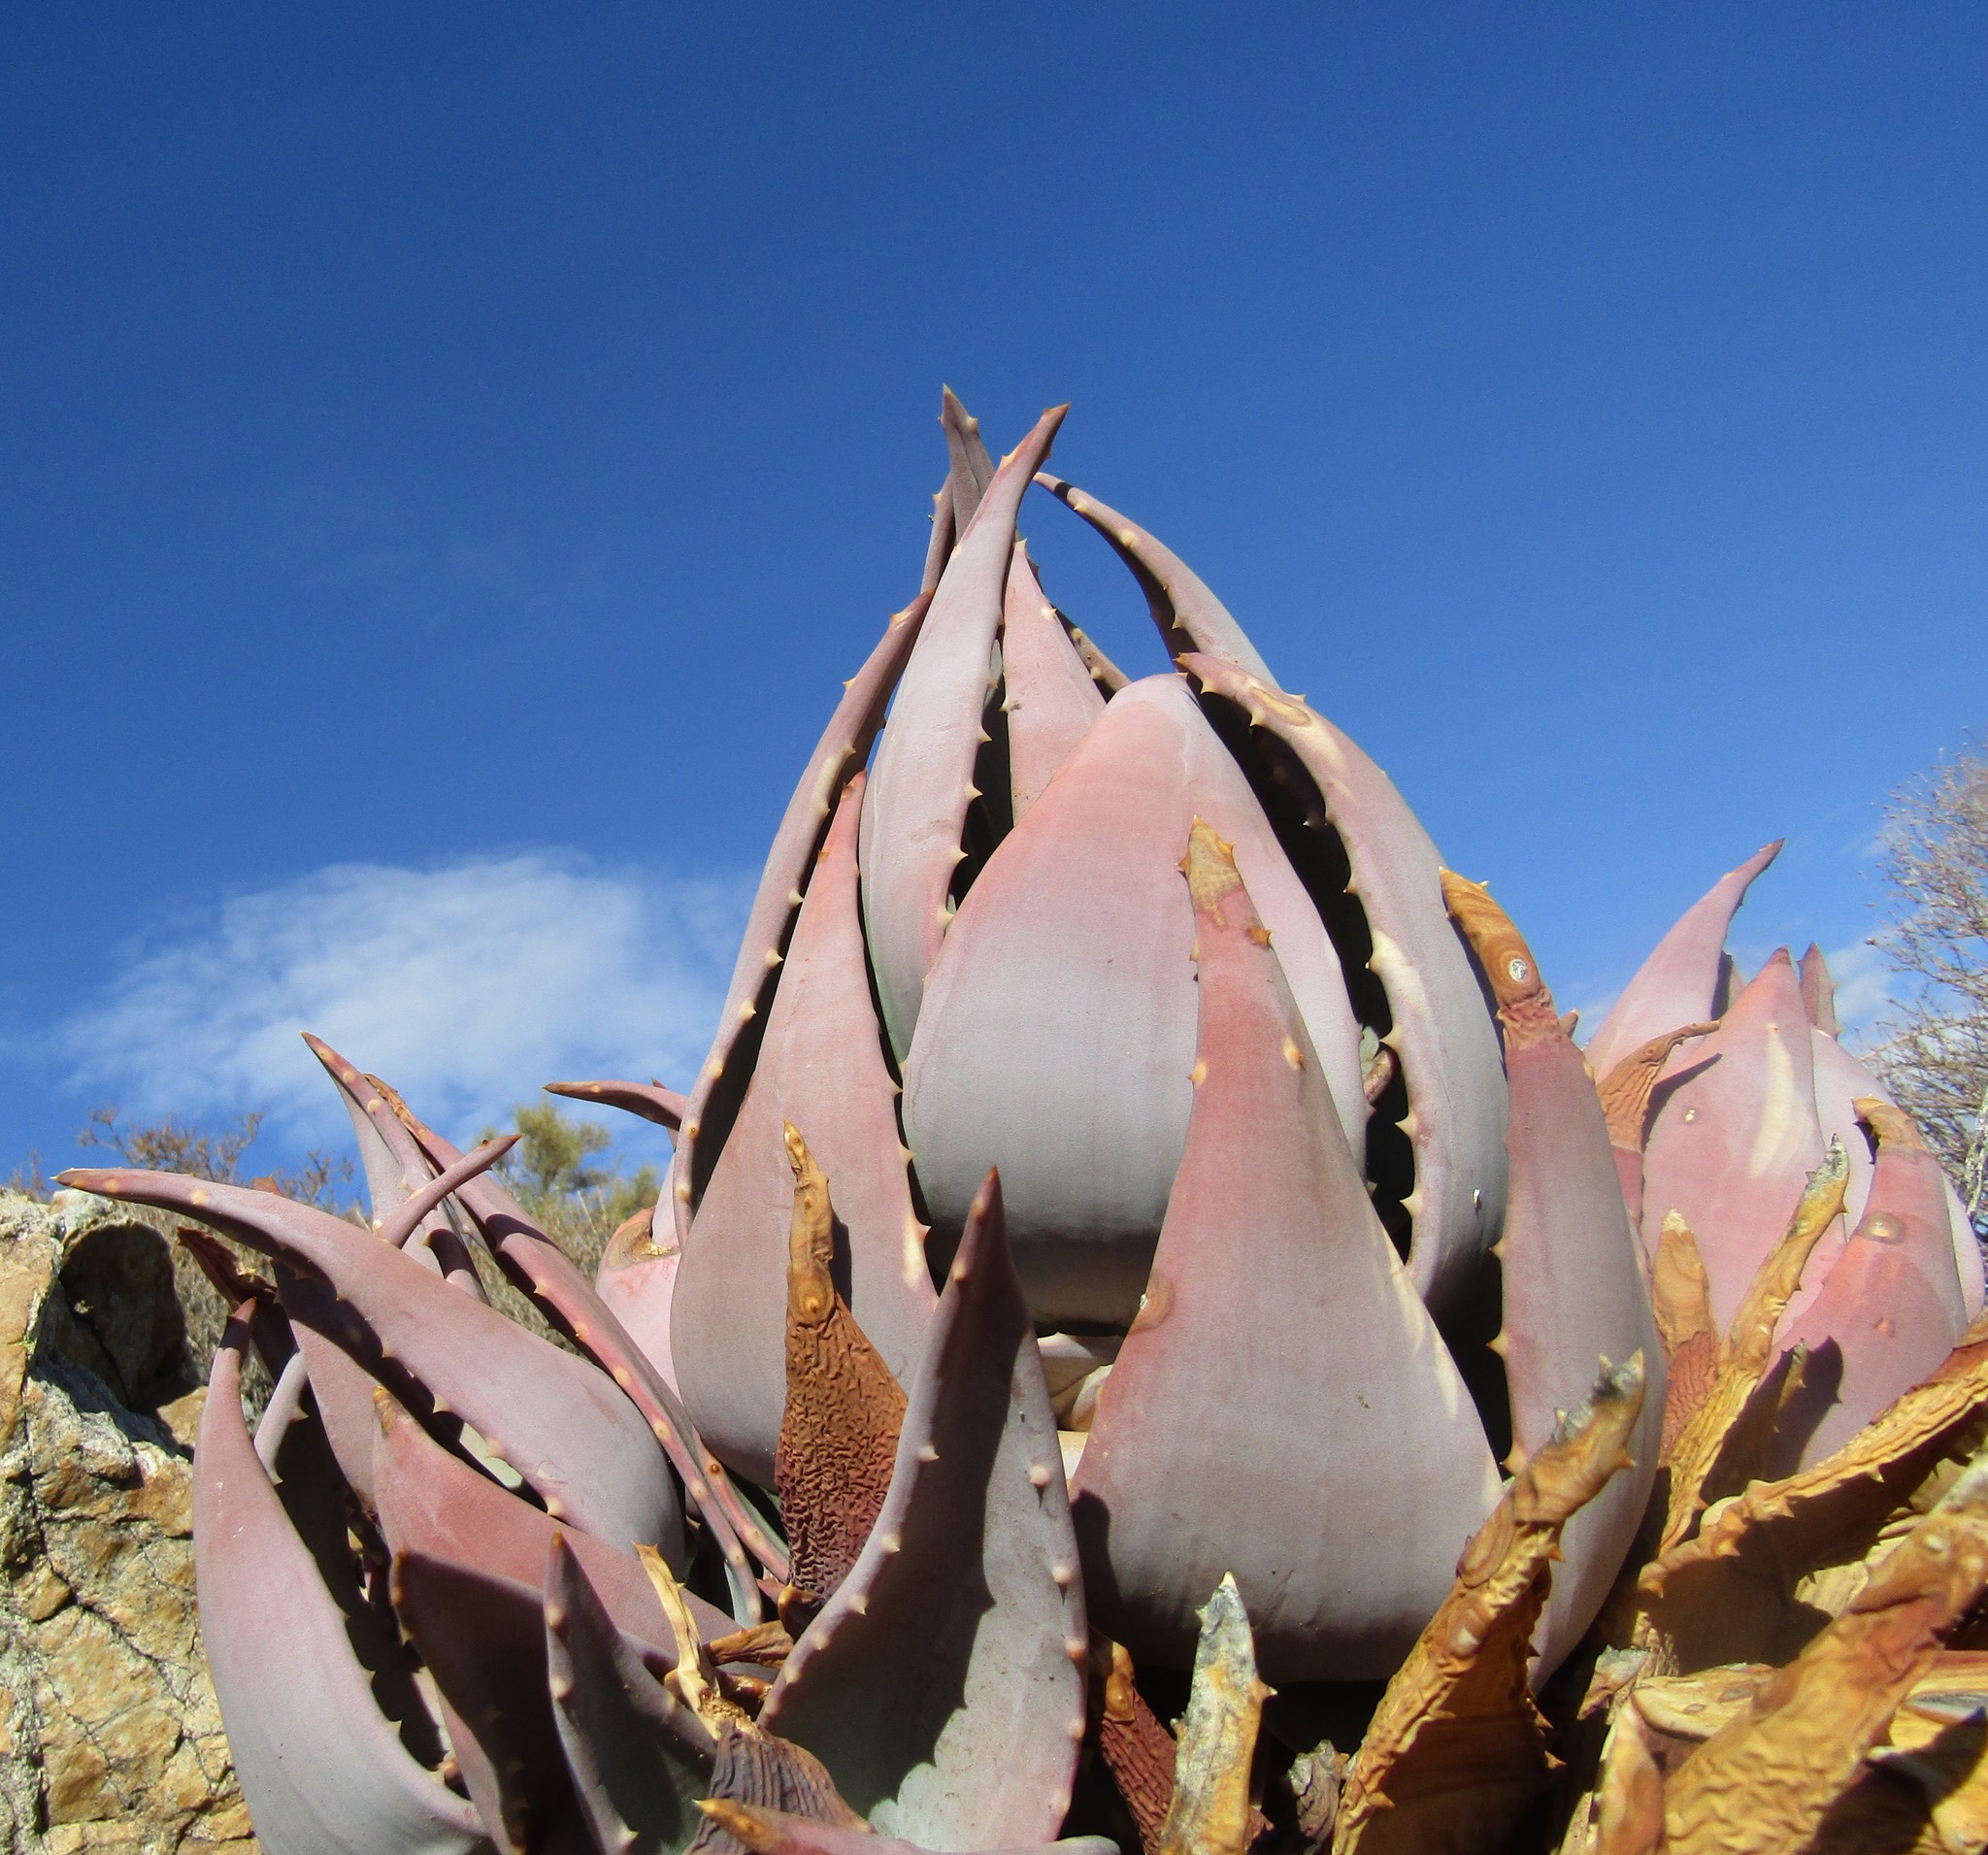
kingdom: Plantae
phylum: Tracheophyta
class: Liliopsida
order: Asparagales
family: Asphodelaceae
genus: Aloe
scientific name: Aloe comptonii
